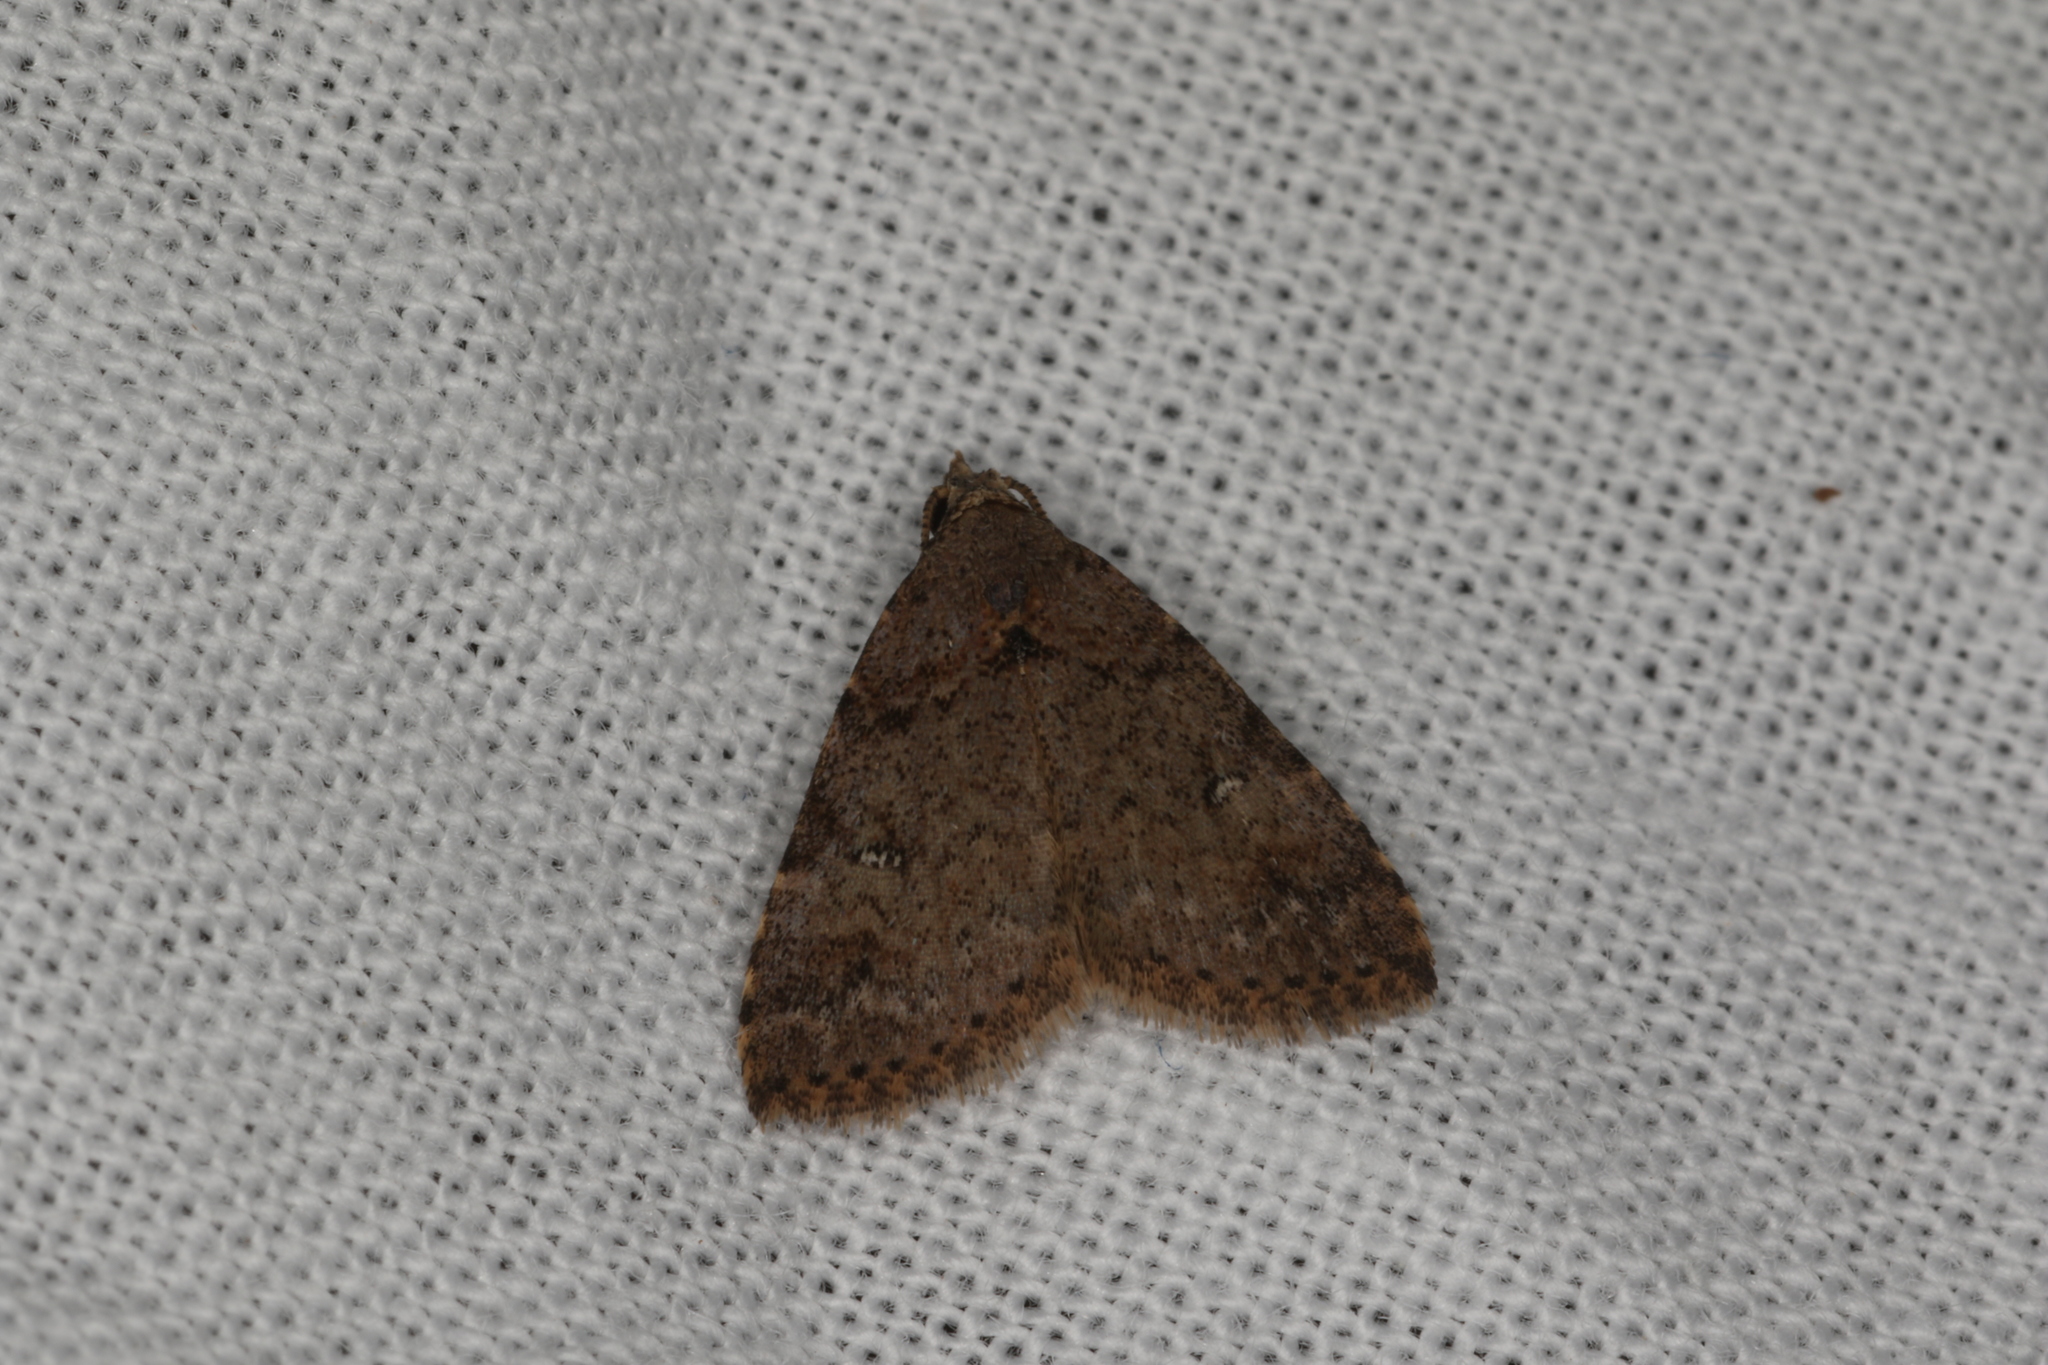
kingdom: Animalia
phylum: Arthropoda
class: Insecta
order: Lepidoptera
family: Erebidae
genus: Alapadna
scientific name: Alapadna pauropis
